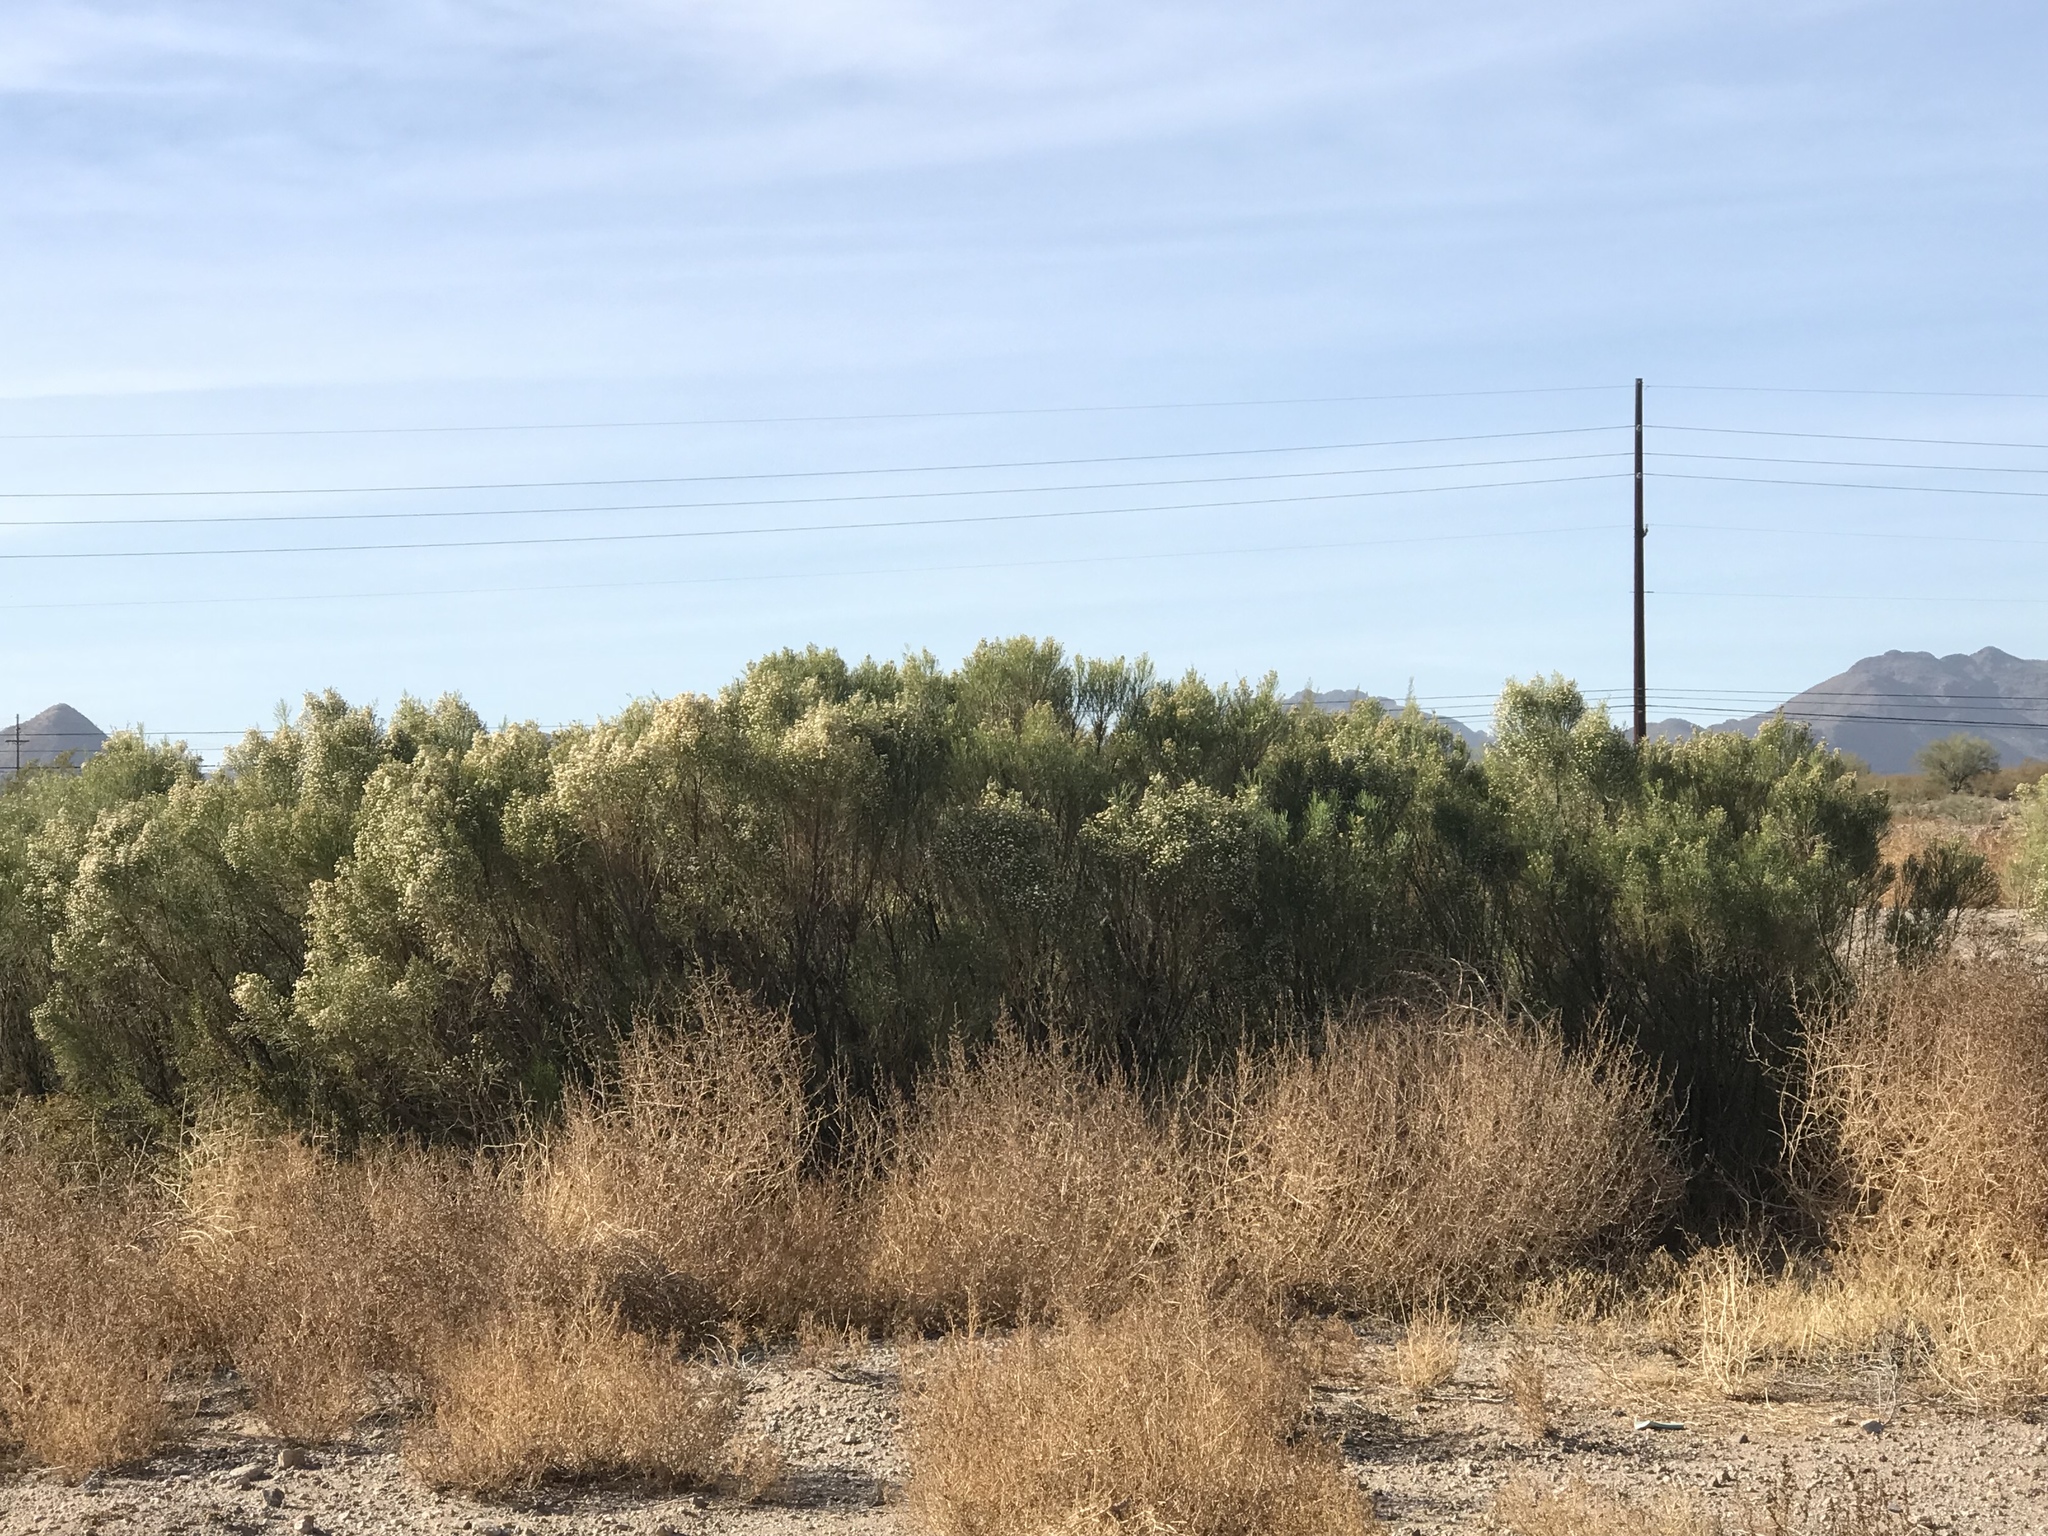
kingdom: Plantae
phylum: Tracheophyta
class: Magnoliopsida
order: Asterales
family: Asteraceae
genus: Baccharis
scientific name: Baccharis sarothroides
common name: Desert-broom
